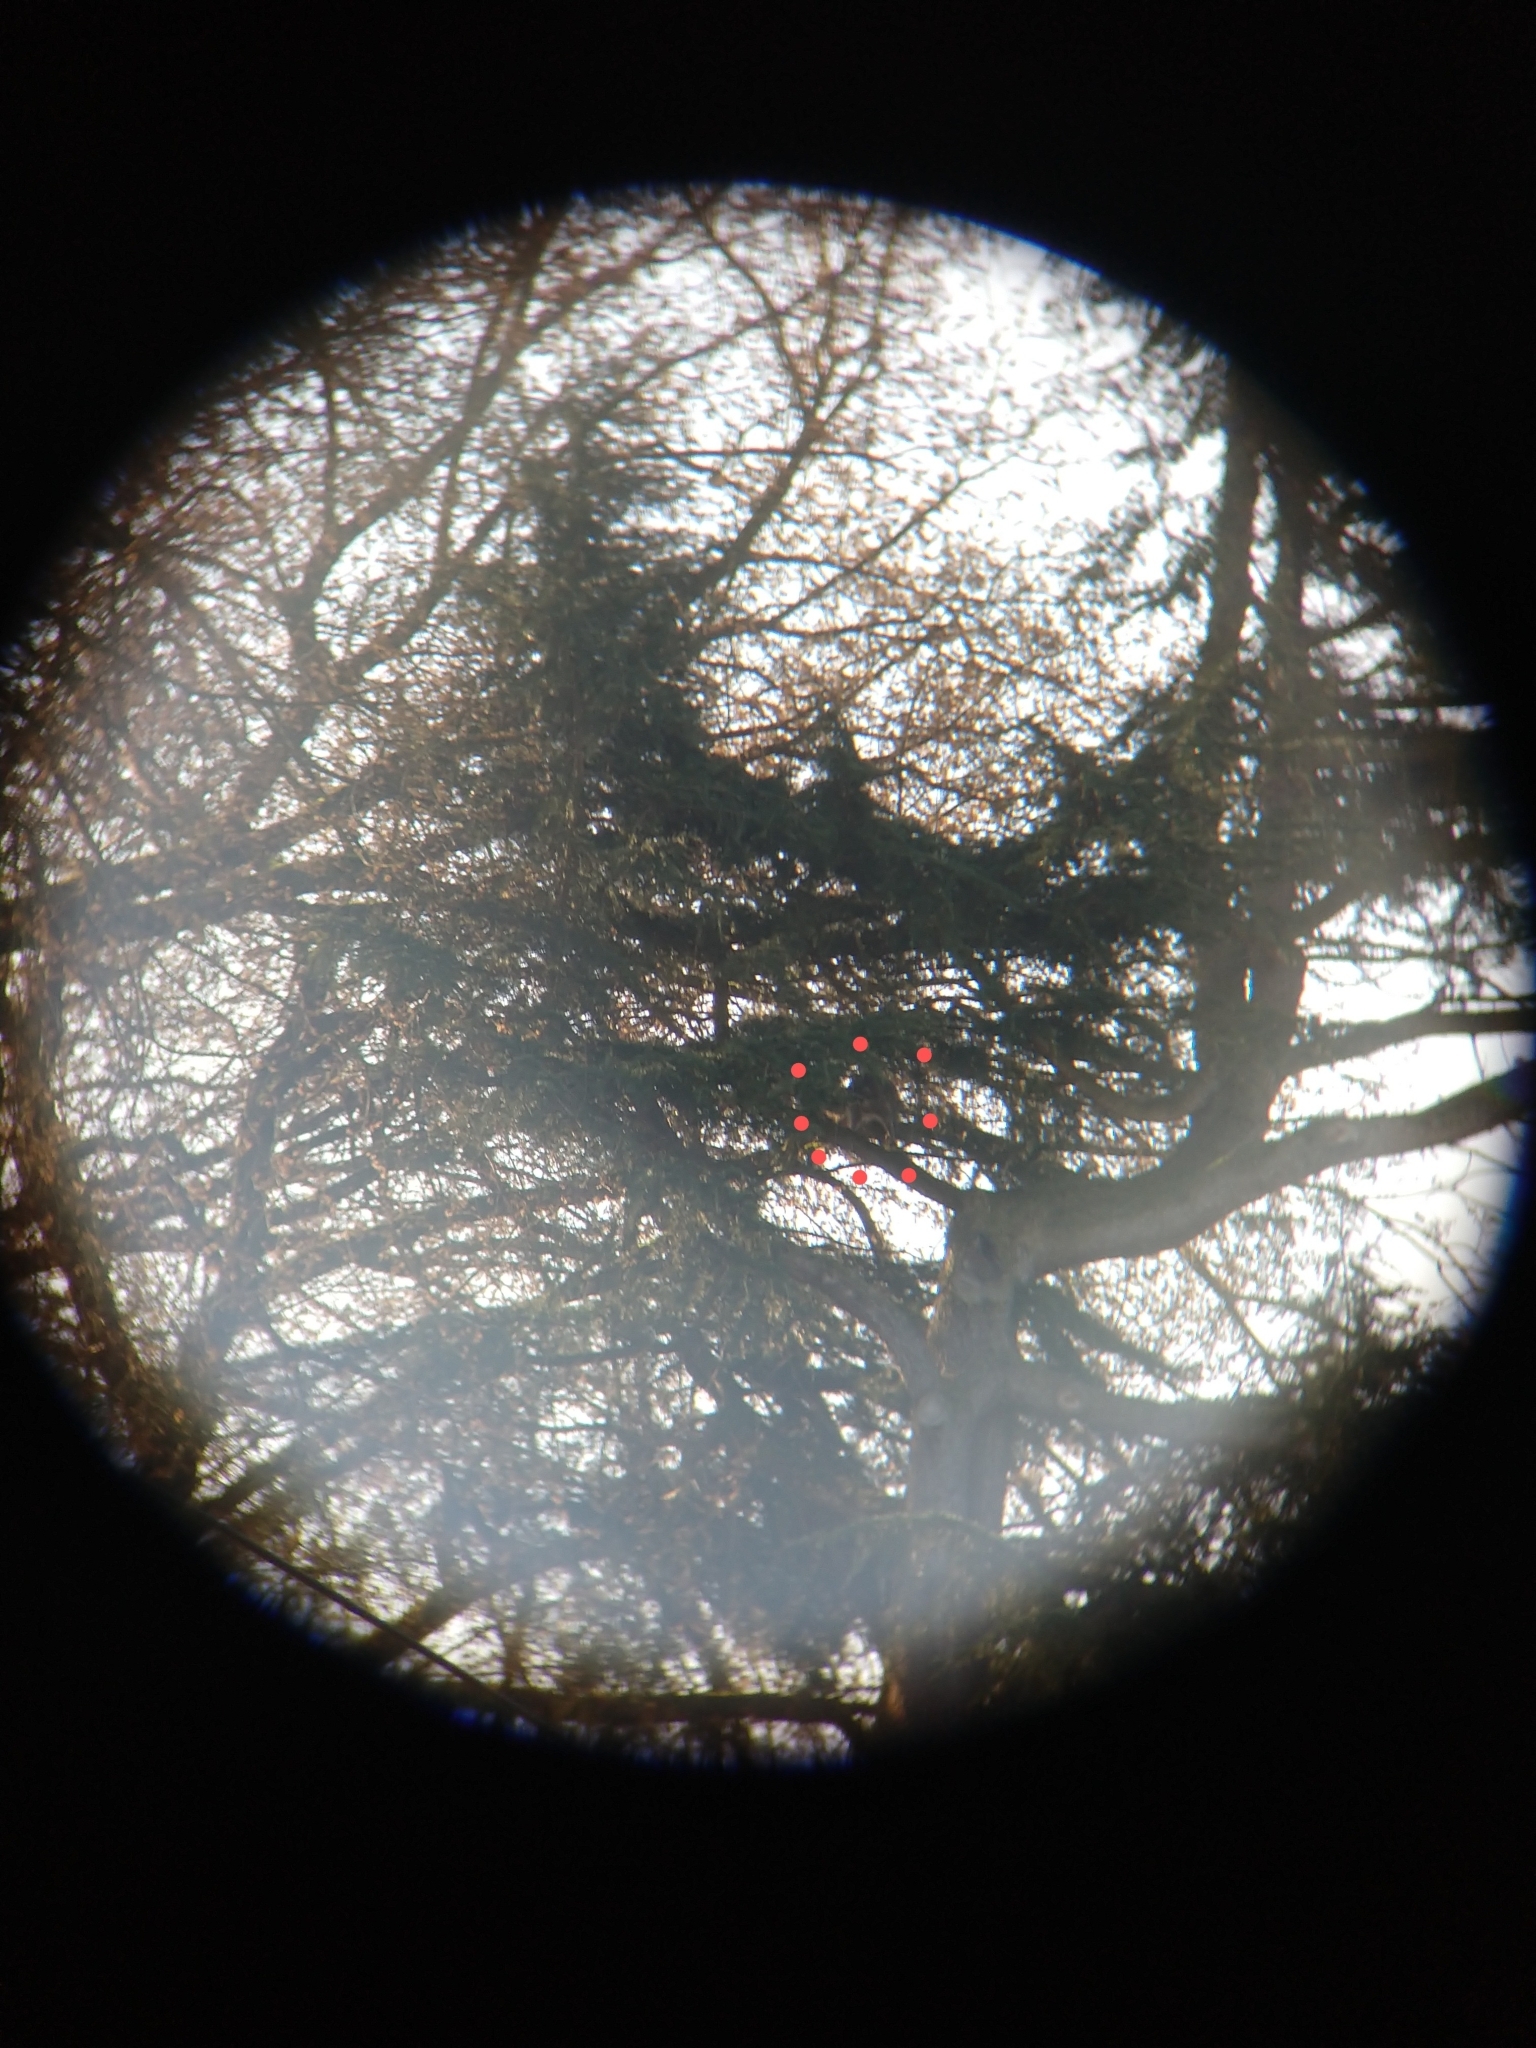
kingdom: Animalia
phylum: Chordata
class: Mammalia
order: Carnivora
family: Procyonidae
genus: Procyon
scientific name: Procyon lotor
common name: Raccoon
